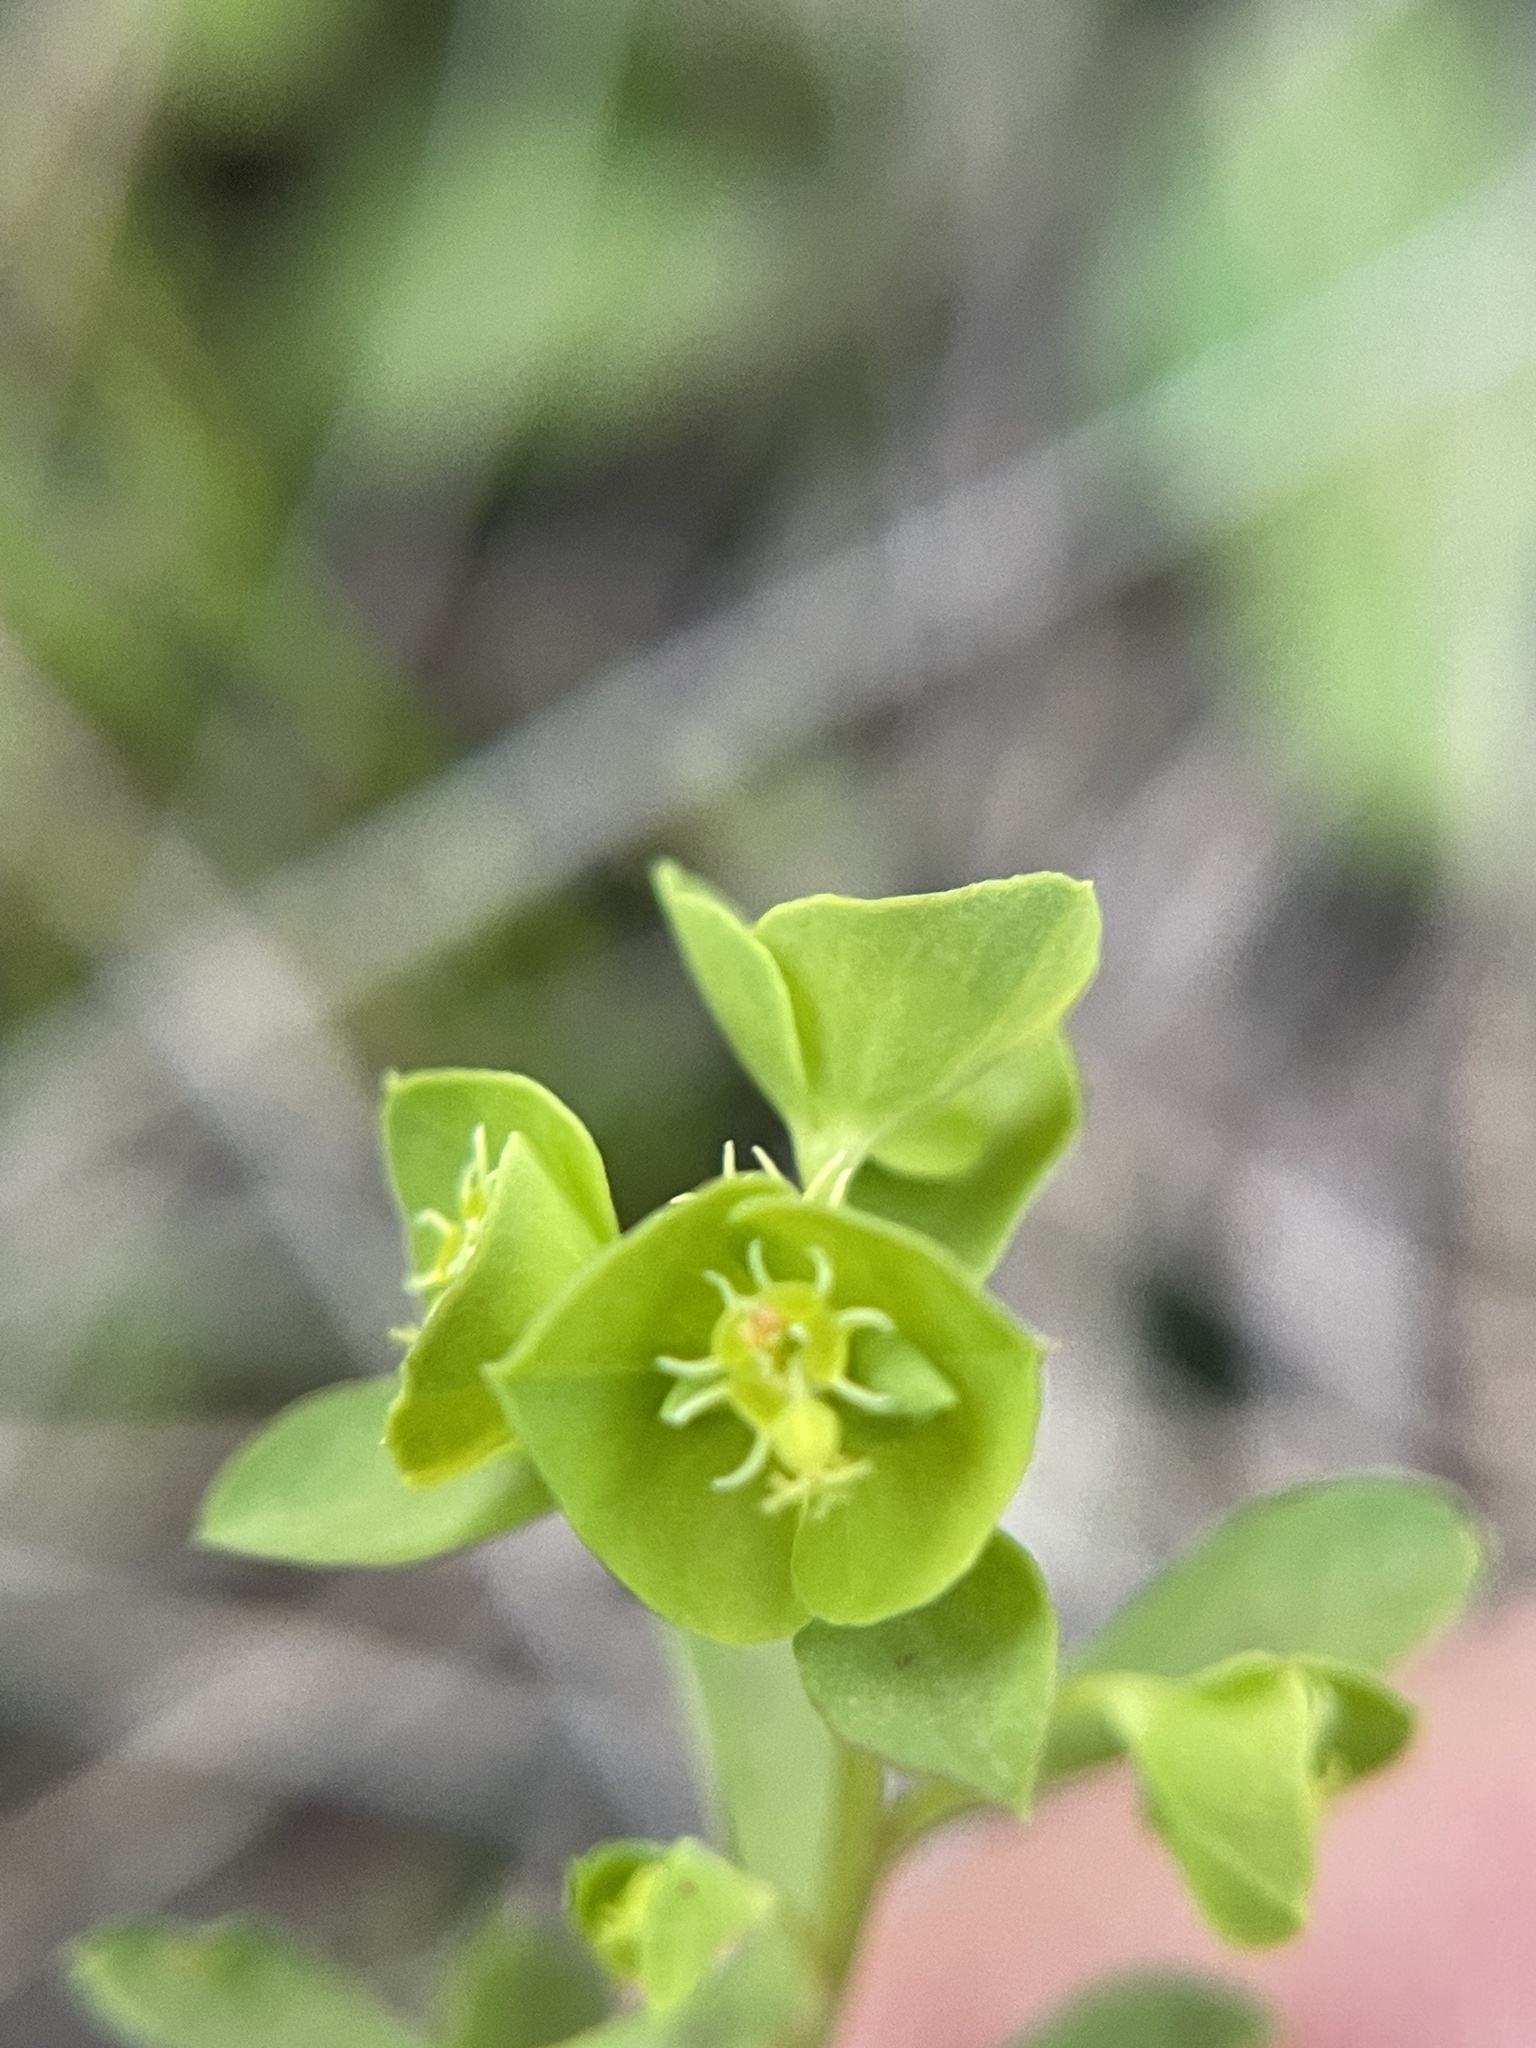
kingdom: Plantae
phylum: Tracheophyta
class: Magnoliopsida
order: Malpighiales
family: Euphorbiaceae
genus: Euphorbia
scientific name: Euphorbia tetrapora
